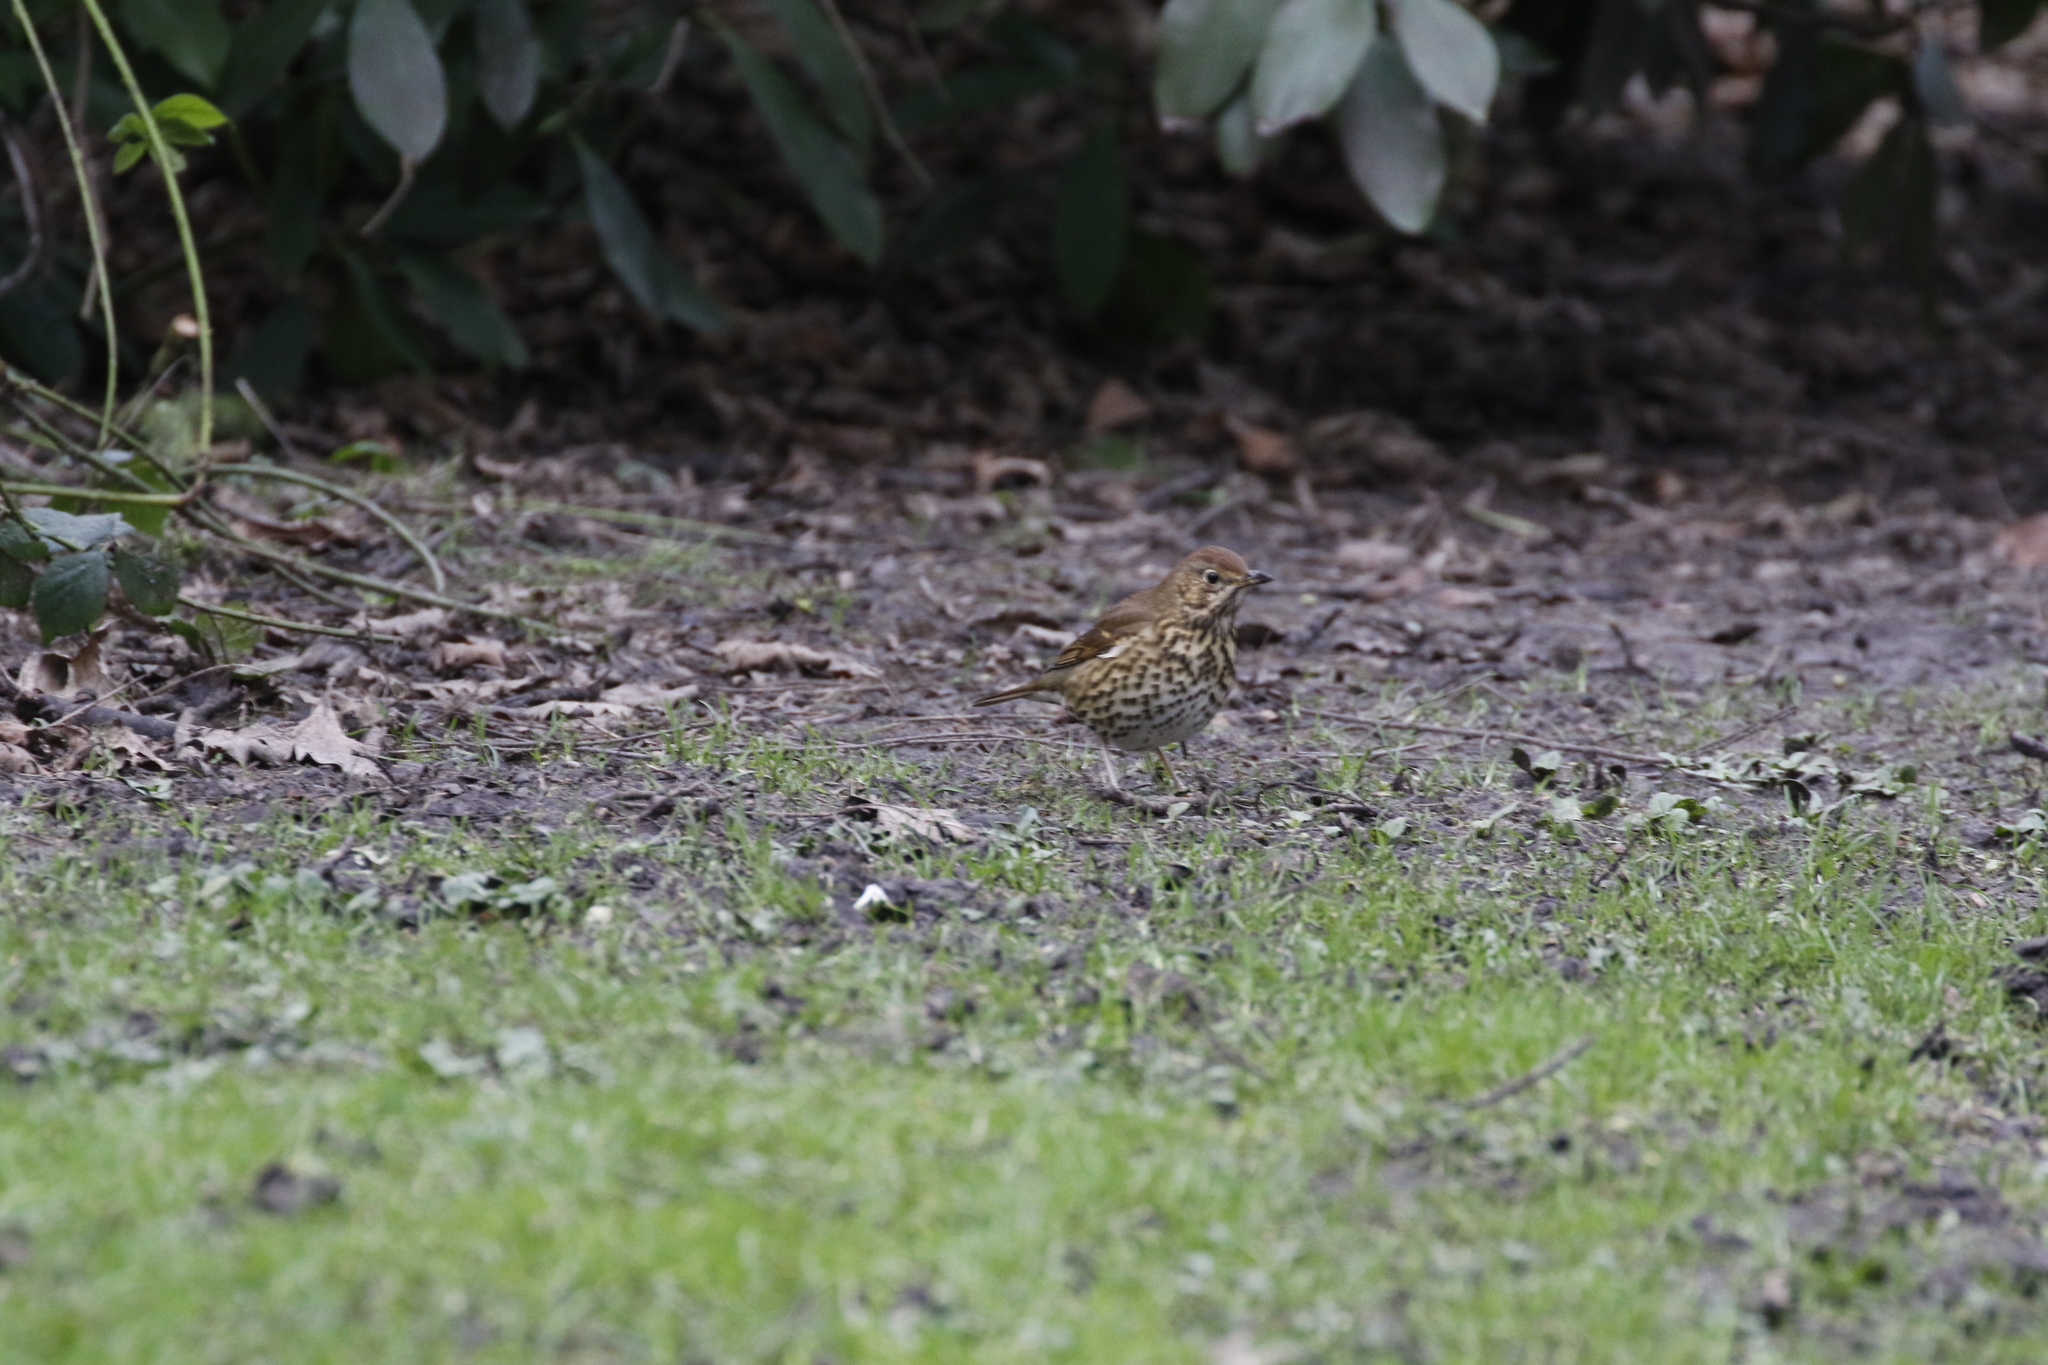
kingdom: Animalia
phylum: Chordata
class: Aves
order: Passeriformes
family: Turdidae
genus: Turdus
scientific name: Turdus philomelos
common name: Song thrush
